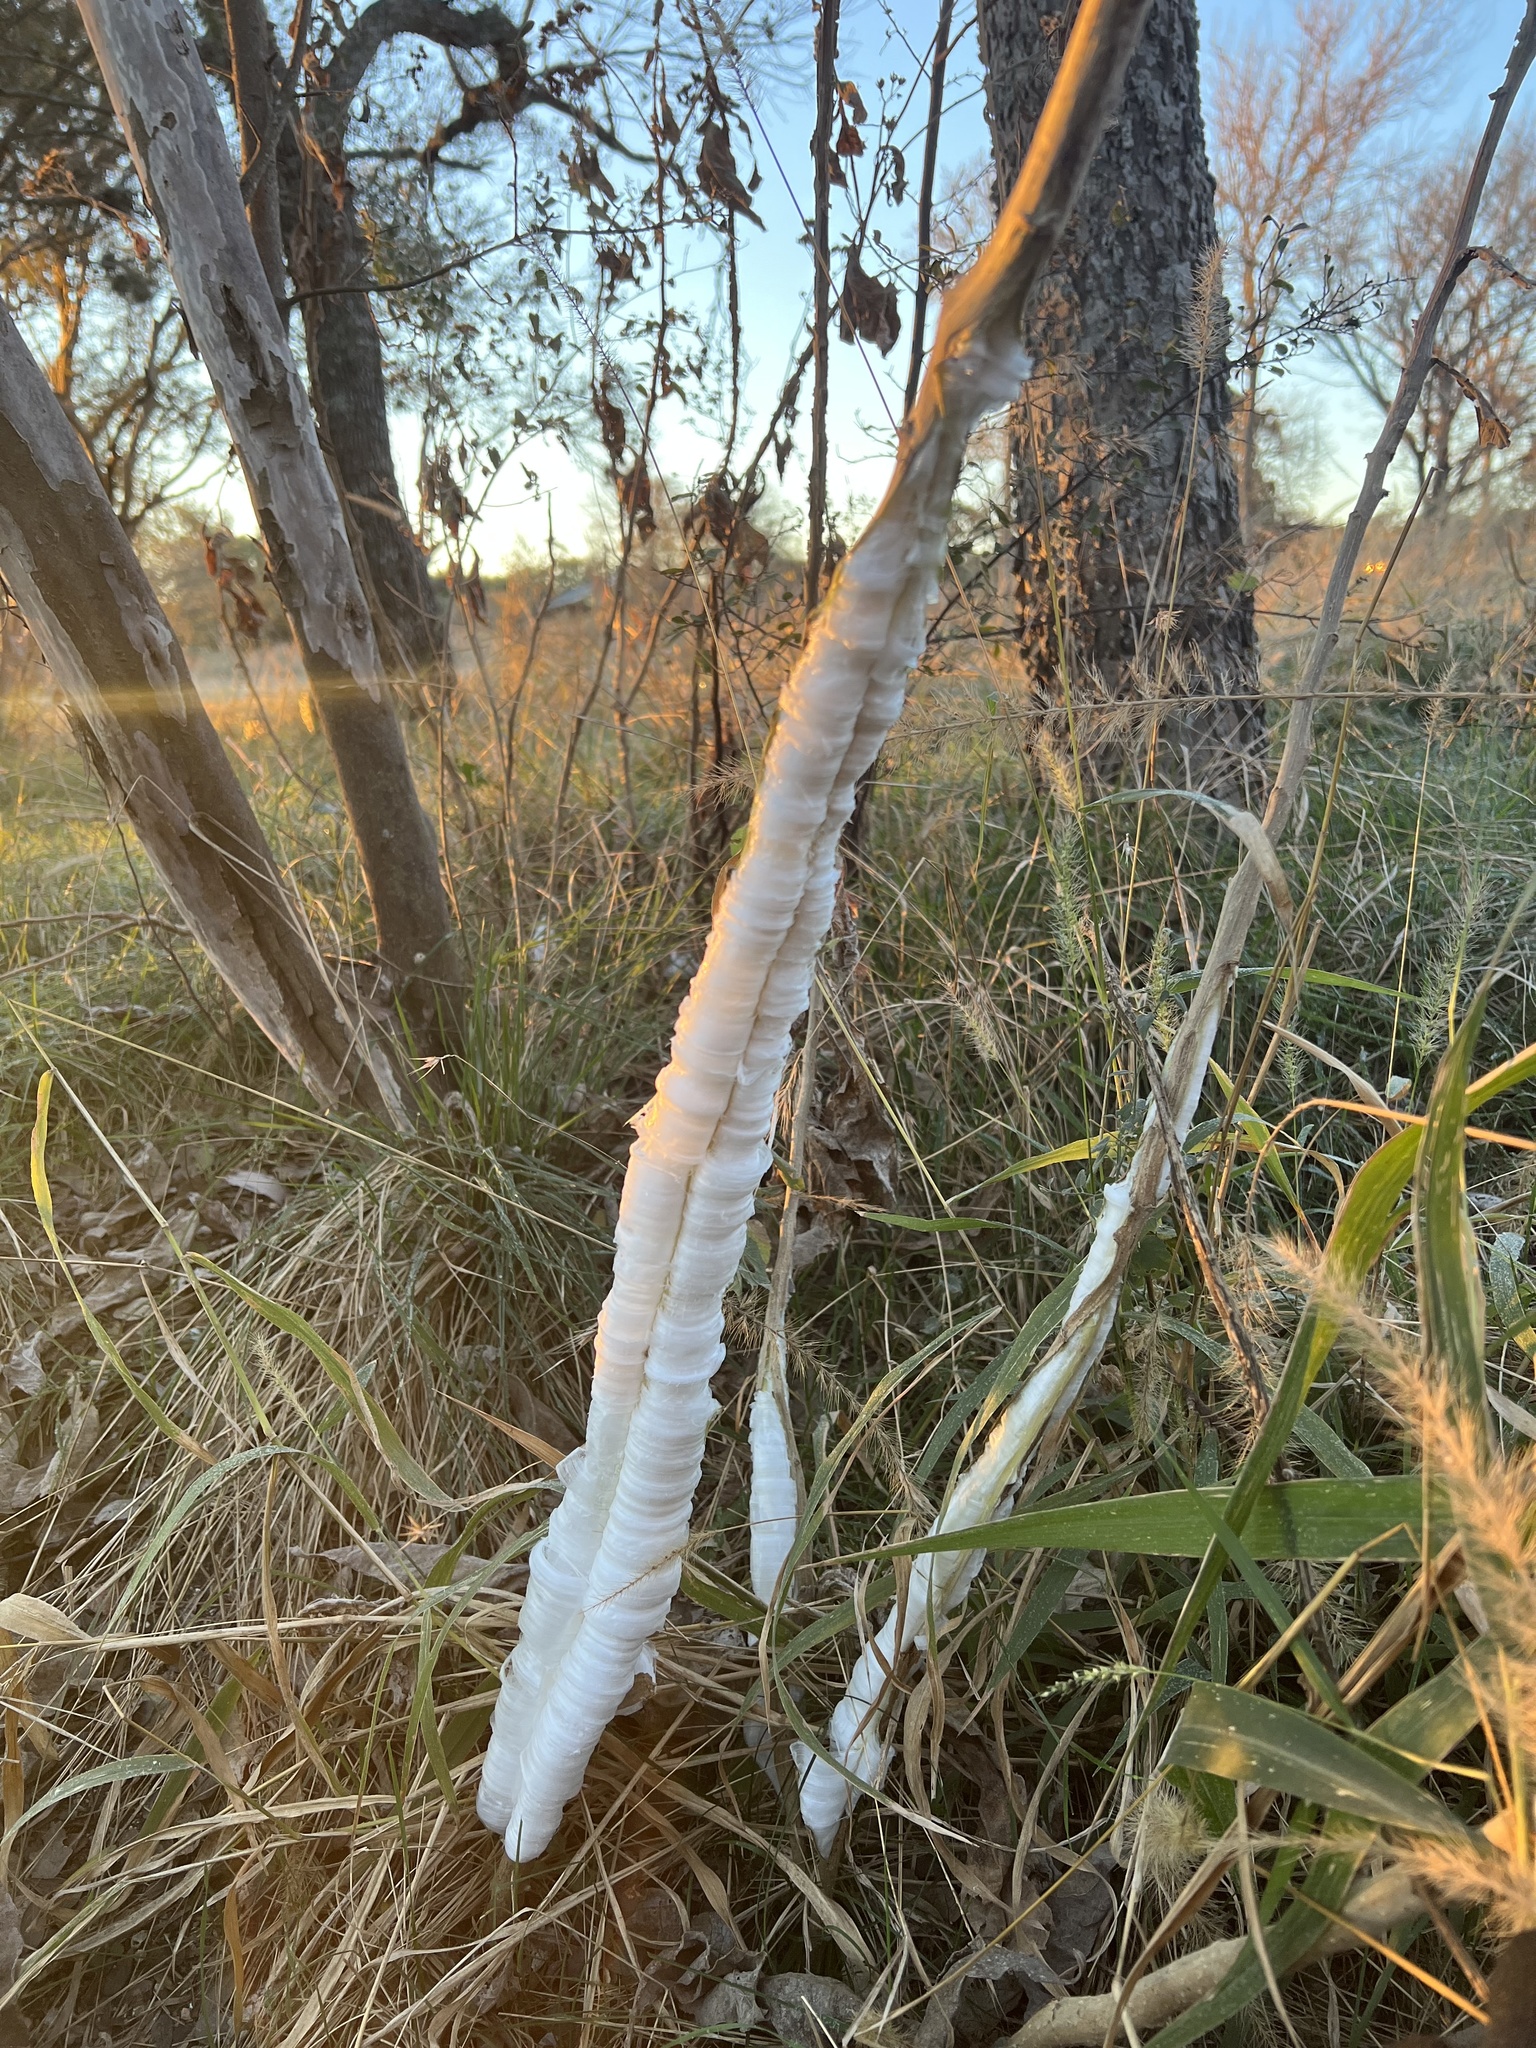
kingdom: Plantae
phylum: Tracheophyta
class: Magnoliopsida
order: Asterales
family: Asteraceae
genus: Verbesina
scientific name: Verbesina virginica
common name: Frostweed
